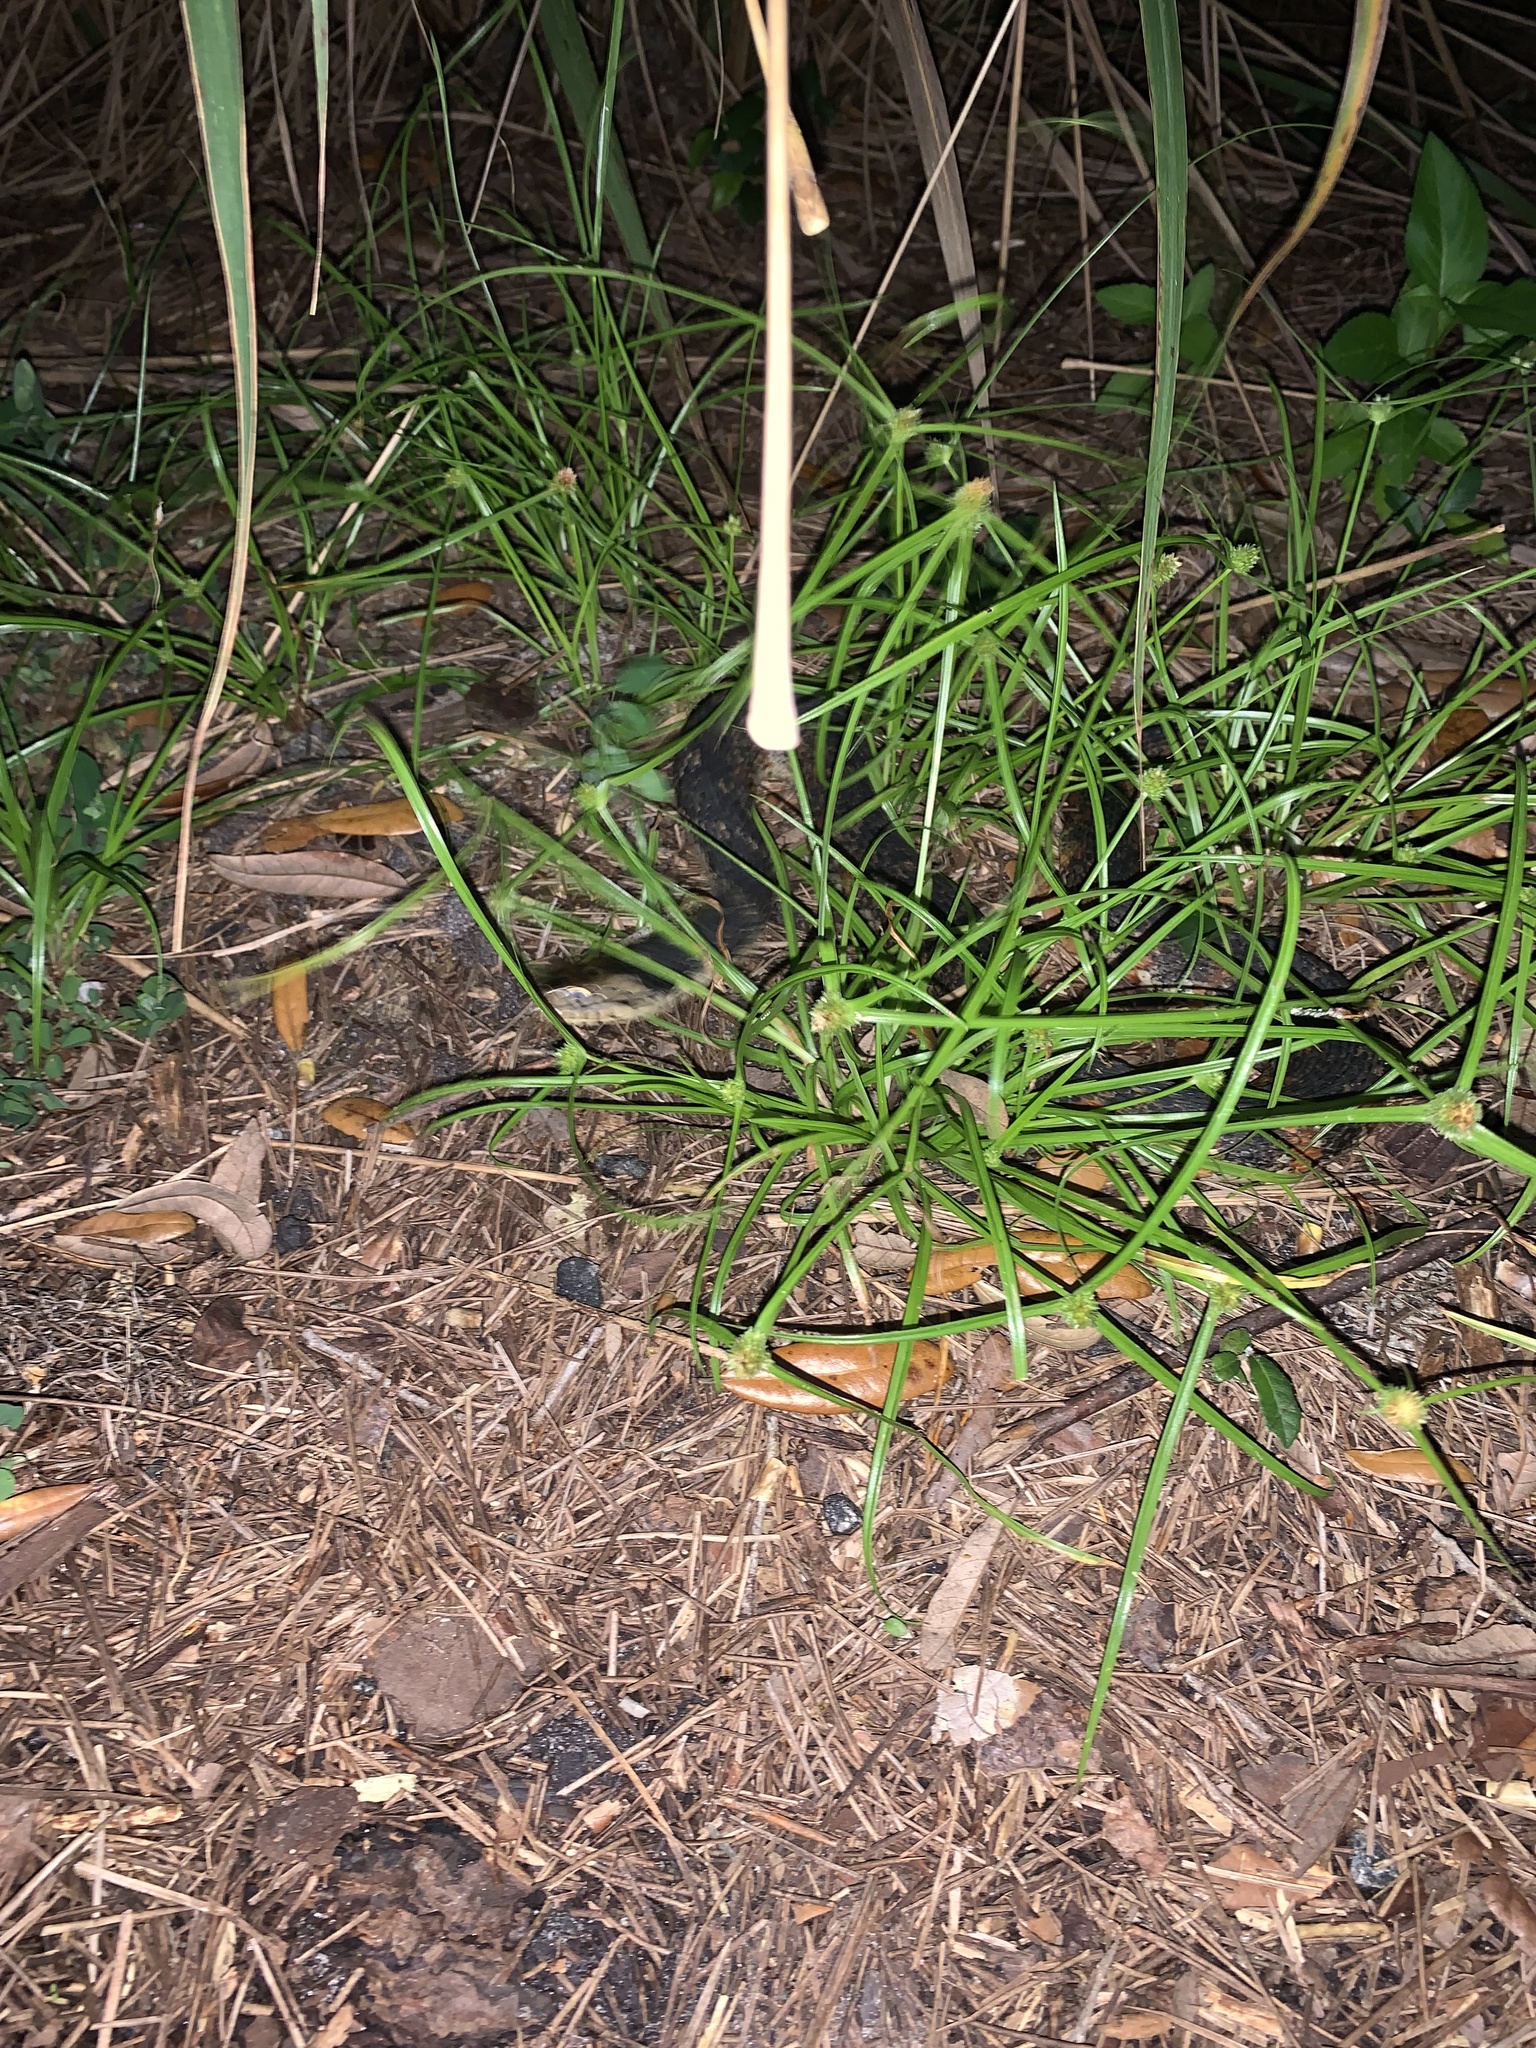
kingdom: Animalia
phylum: Chordata
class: Squamata
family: Colubridae
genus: Nerodia
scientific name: Nerodia fasciata
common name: Southern water snake
